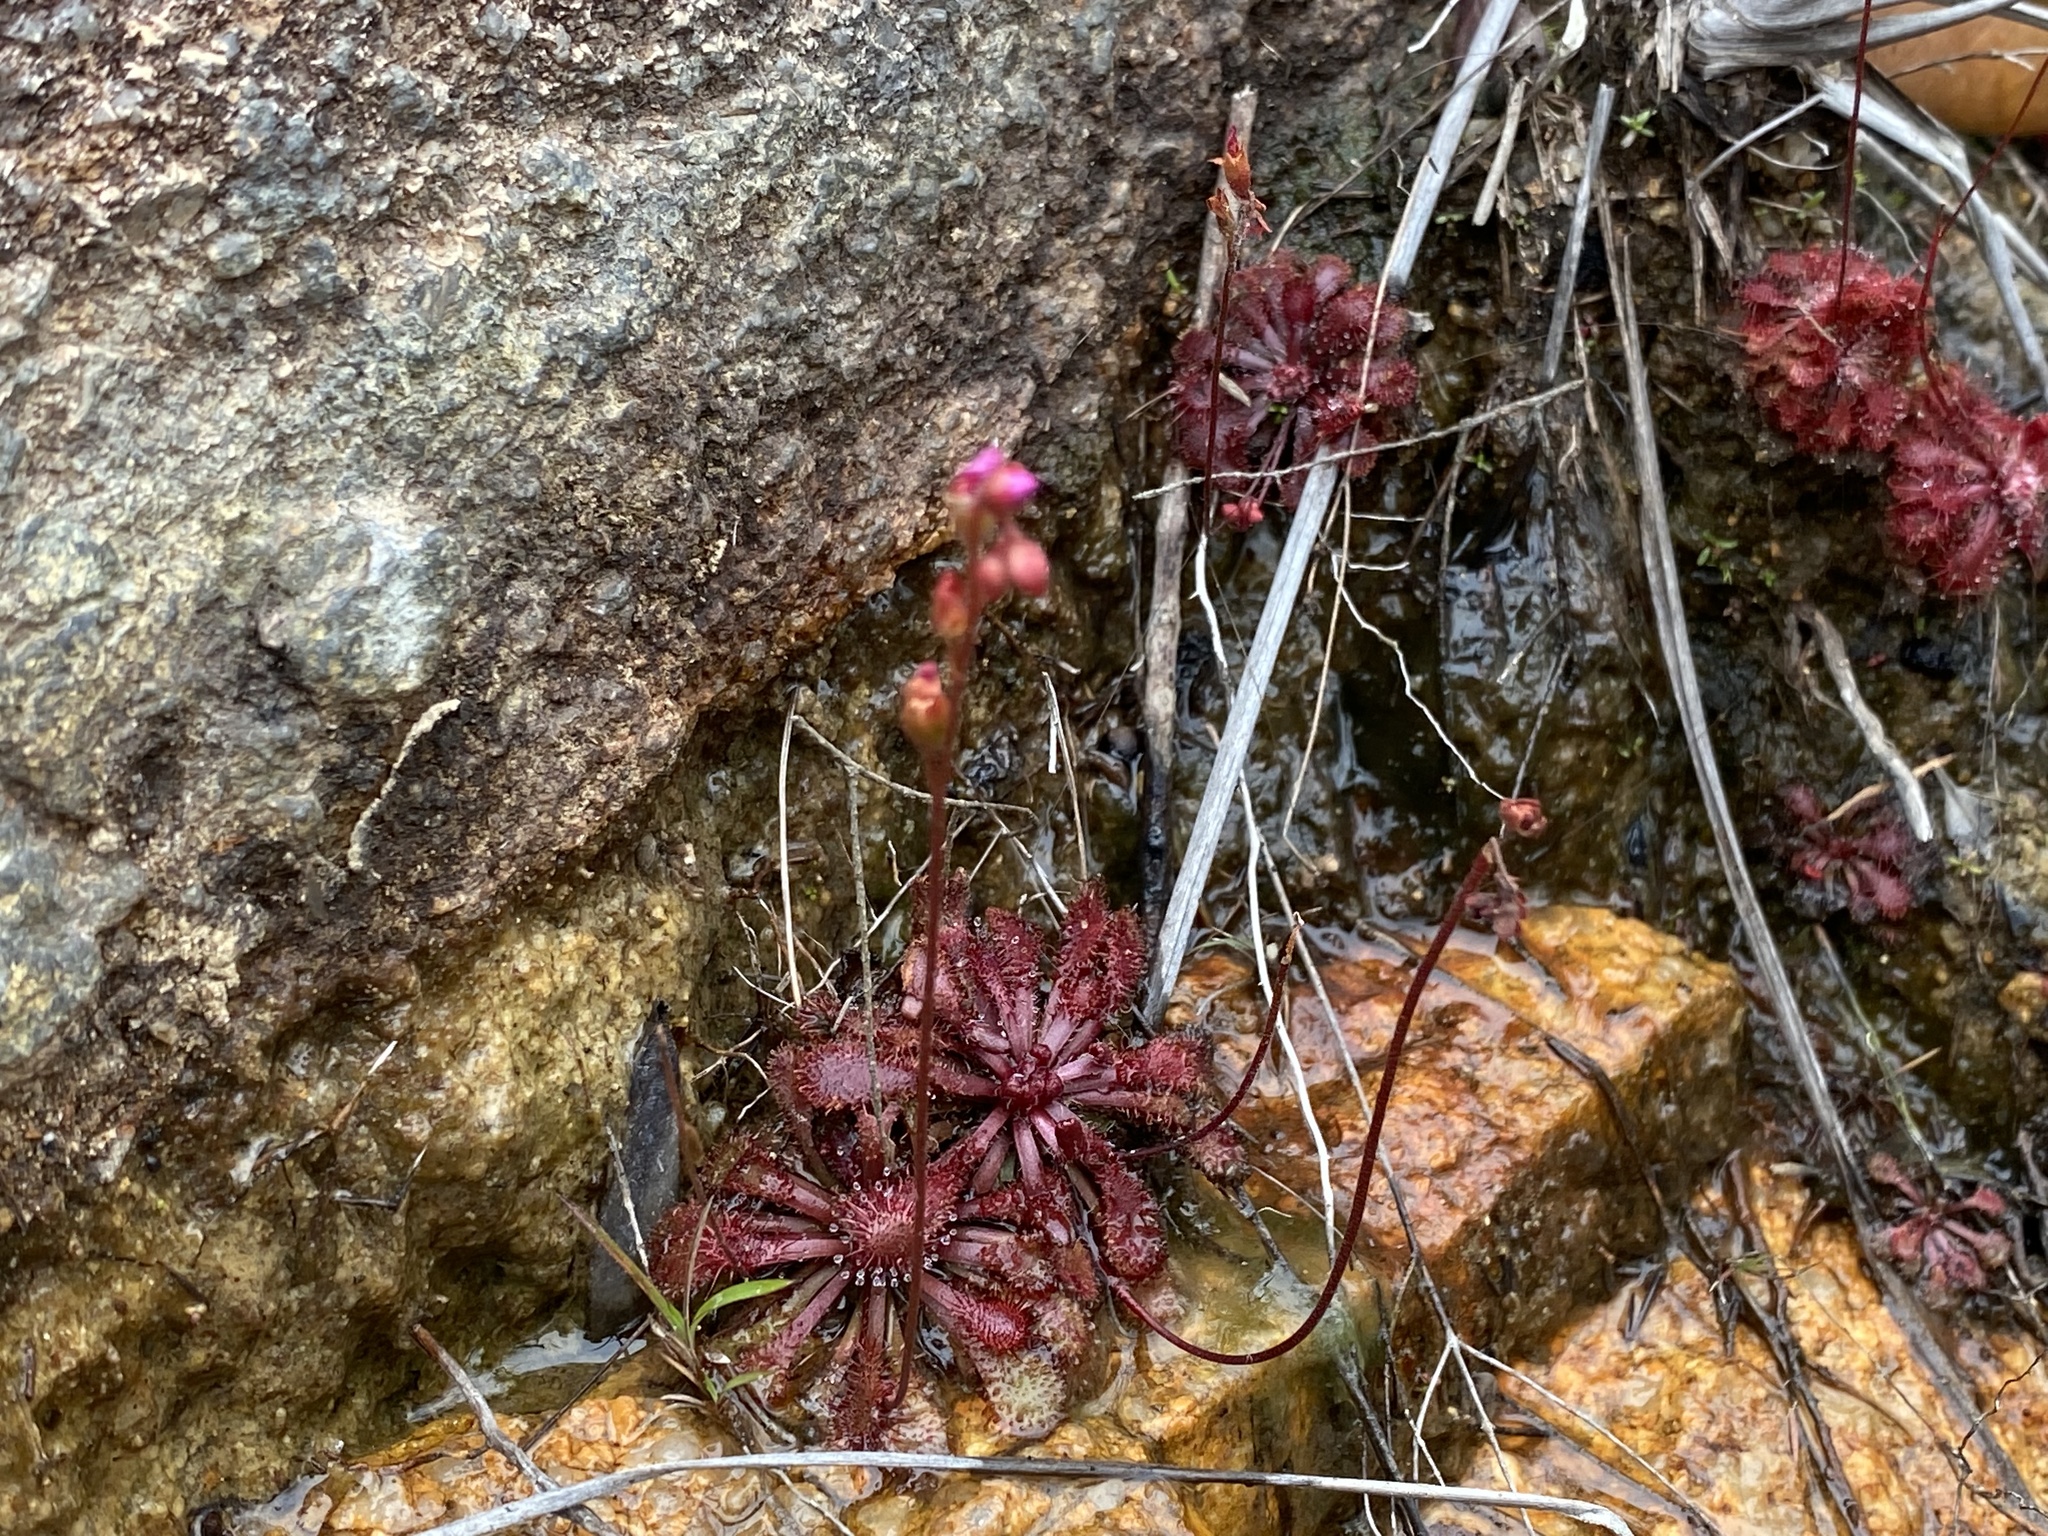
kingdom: Plantae
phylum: Tracheophyta
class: Magnoliopsida
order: Caryophyllales
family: Droseraceae
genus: Drosera
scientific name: Drosera spatulata
